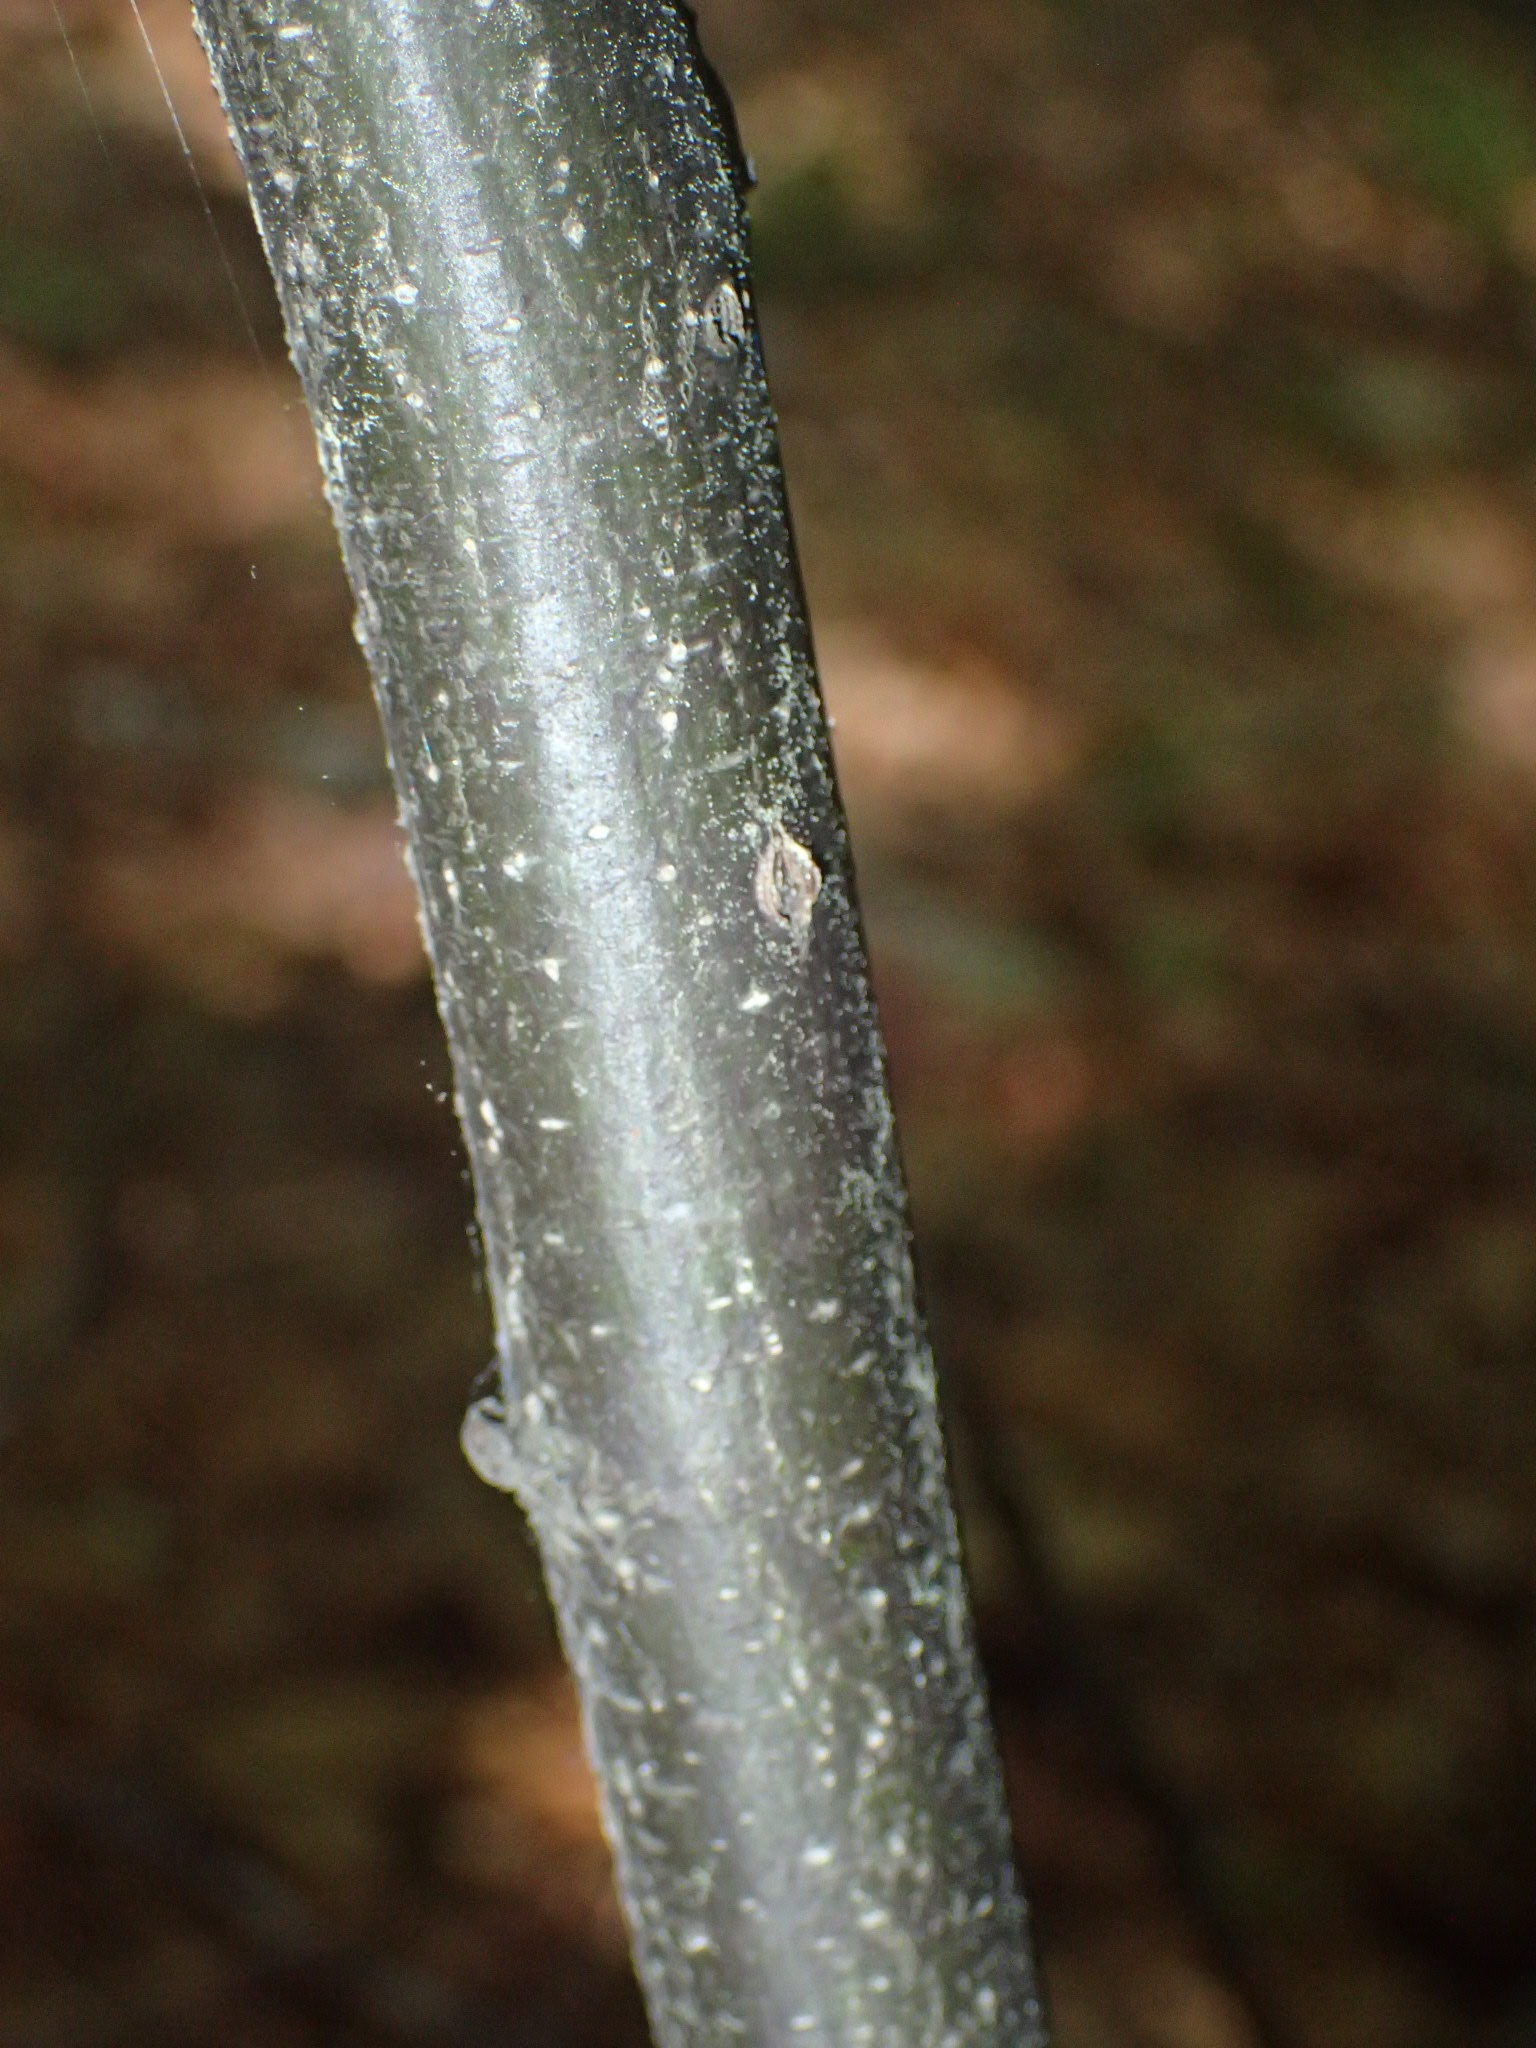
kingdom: Plantae
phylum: Tracheophyta
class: Magnoliopsida
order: Fagales
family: Fagaceae
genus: Castanea
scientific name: Castanea dentata
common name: American chestnut
